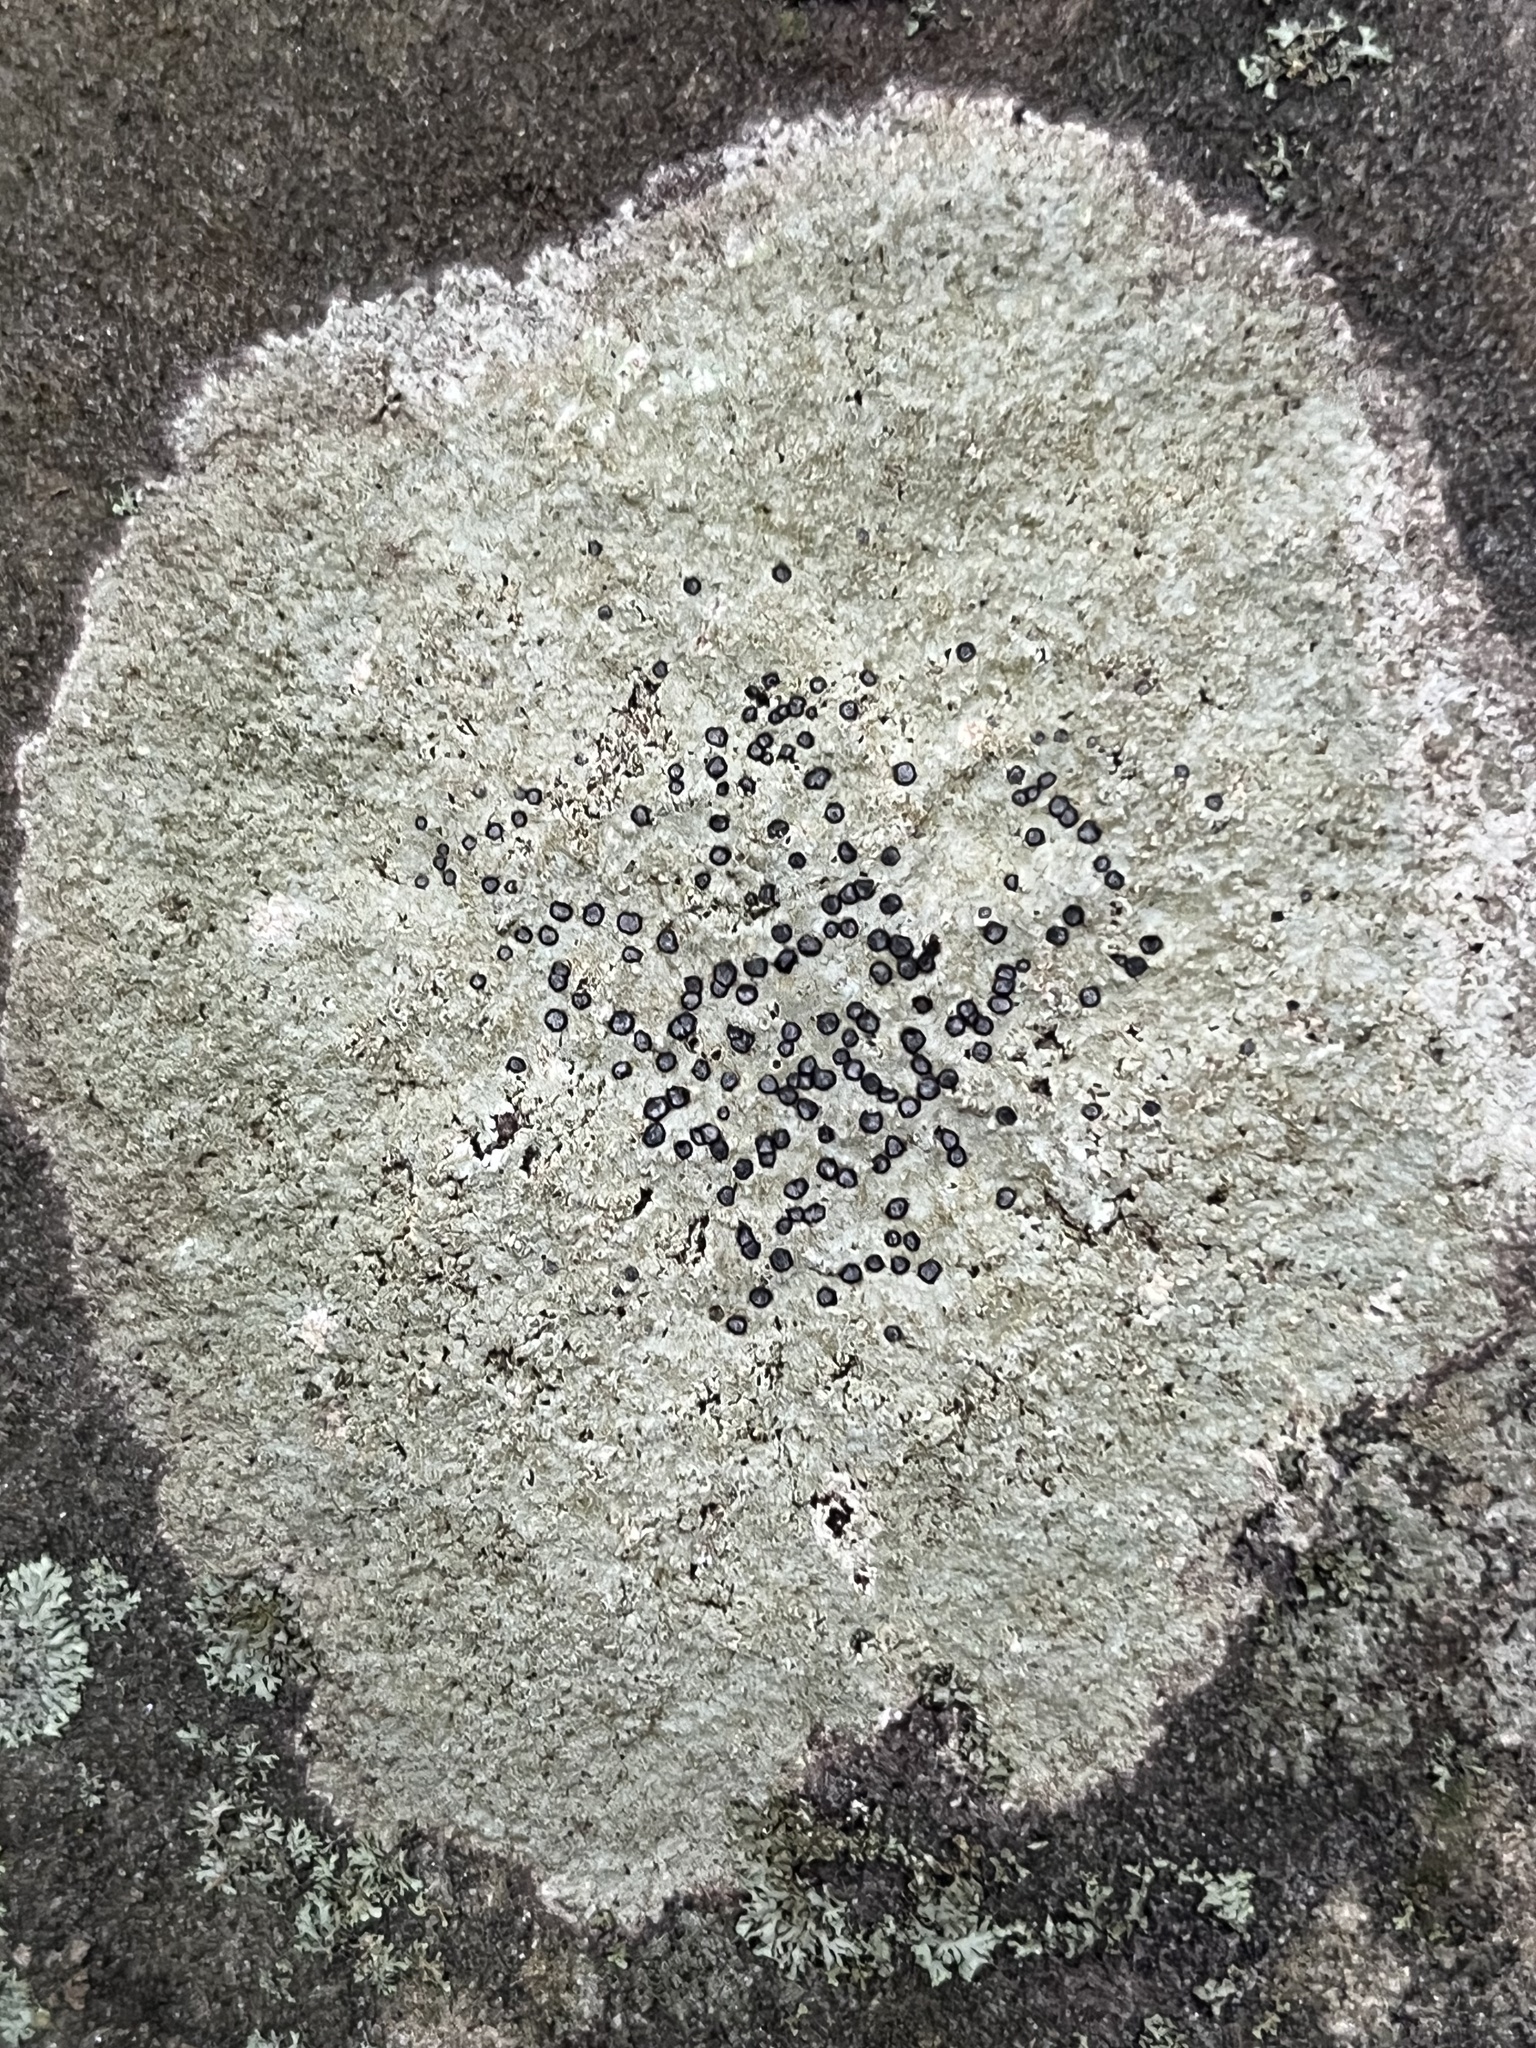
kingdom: Fungi
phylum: Ascomycota
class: Lecanoromycetes
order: Lecideales
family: Lecideaceae
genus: Porpidia
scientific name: Porpidia albocaerulescens
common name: Smokey-eyed boulder lichen
